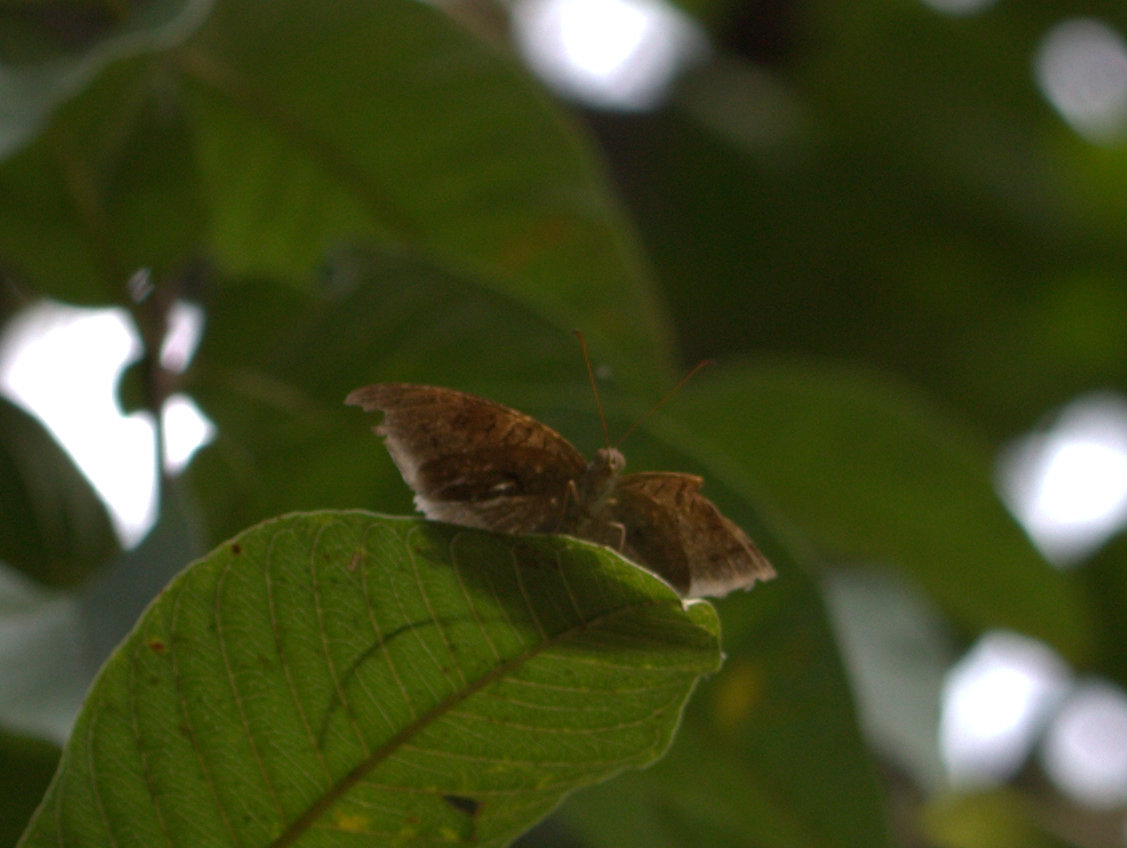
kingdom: Animalia
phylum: Arthropoda
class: Insecta
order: Lepidoptera
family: Nymphalidae
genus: Tanaecia
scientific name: Tanaecia lepidea
